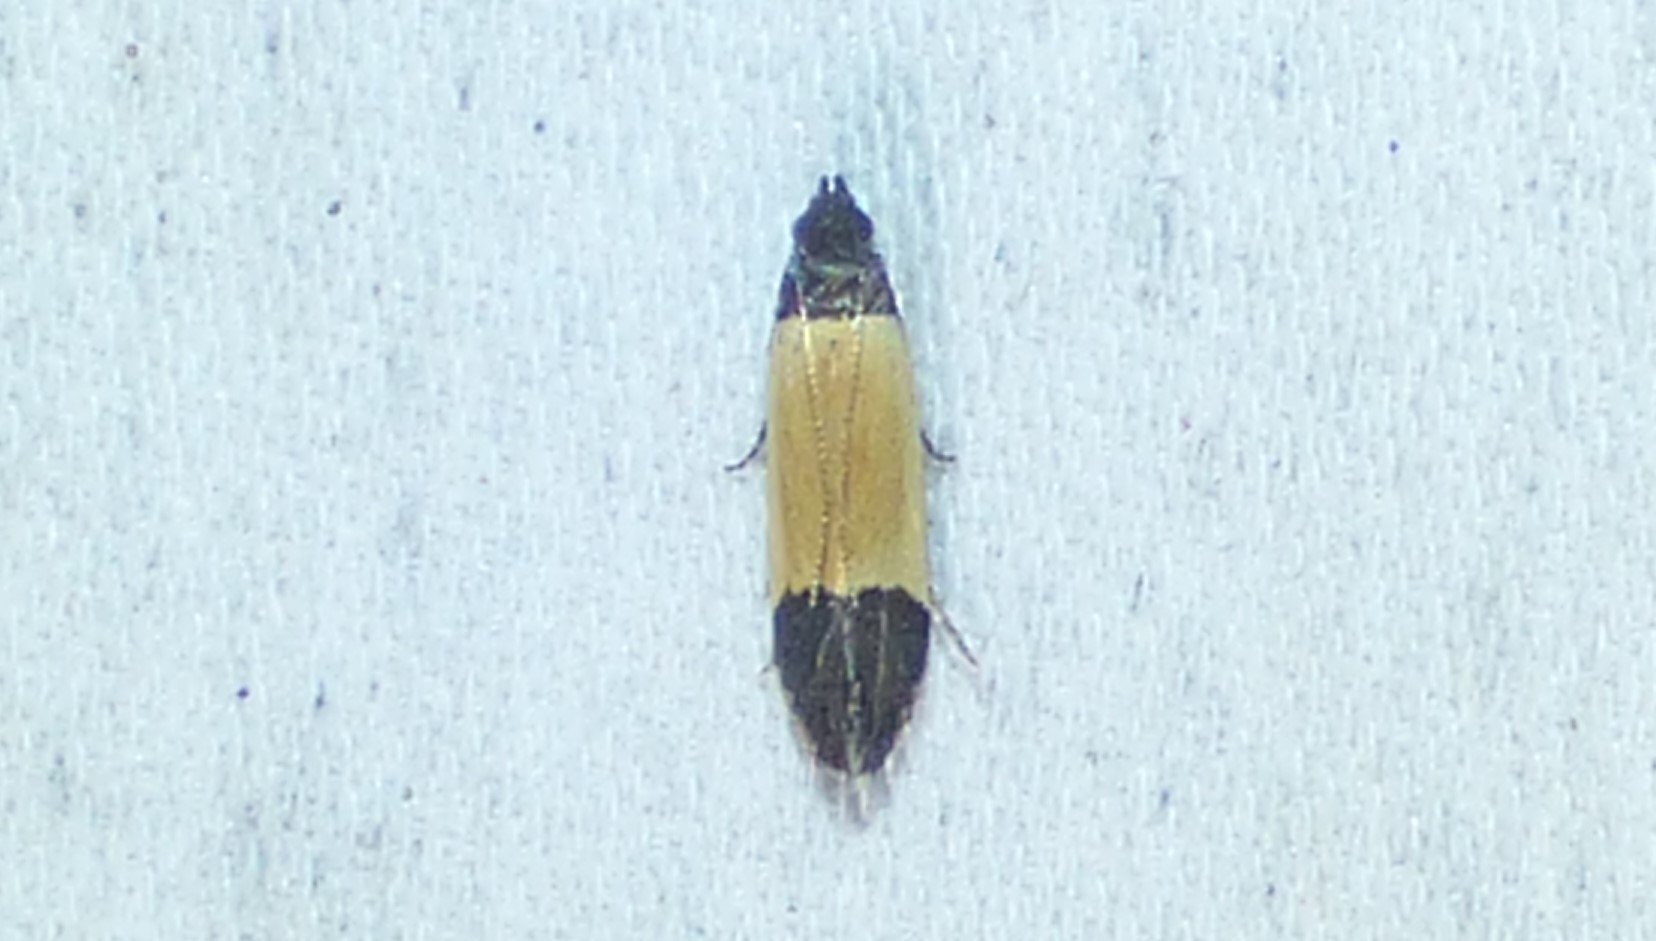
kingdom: Animalia
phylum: Arthropoda
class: Insecta
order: Lepidoptera
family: Gelechiidae
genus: Anacampsis
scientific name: Anacampsis coverdalella
